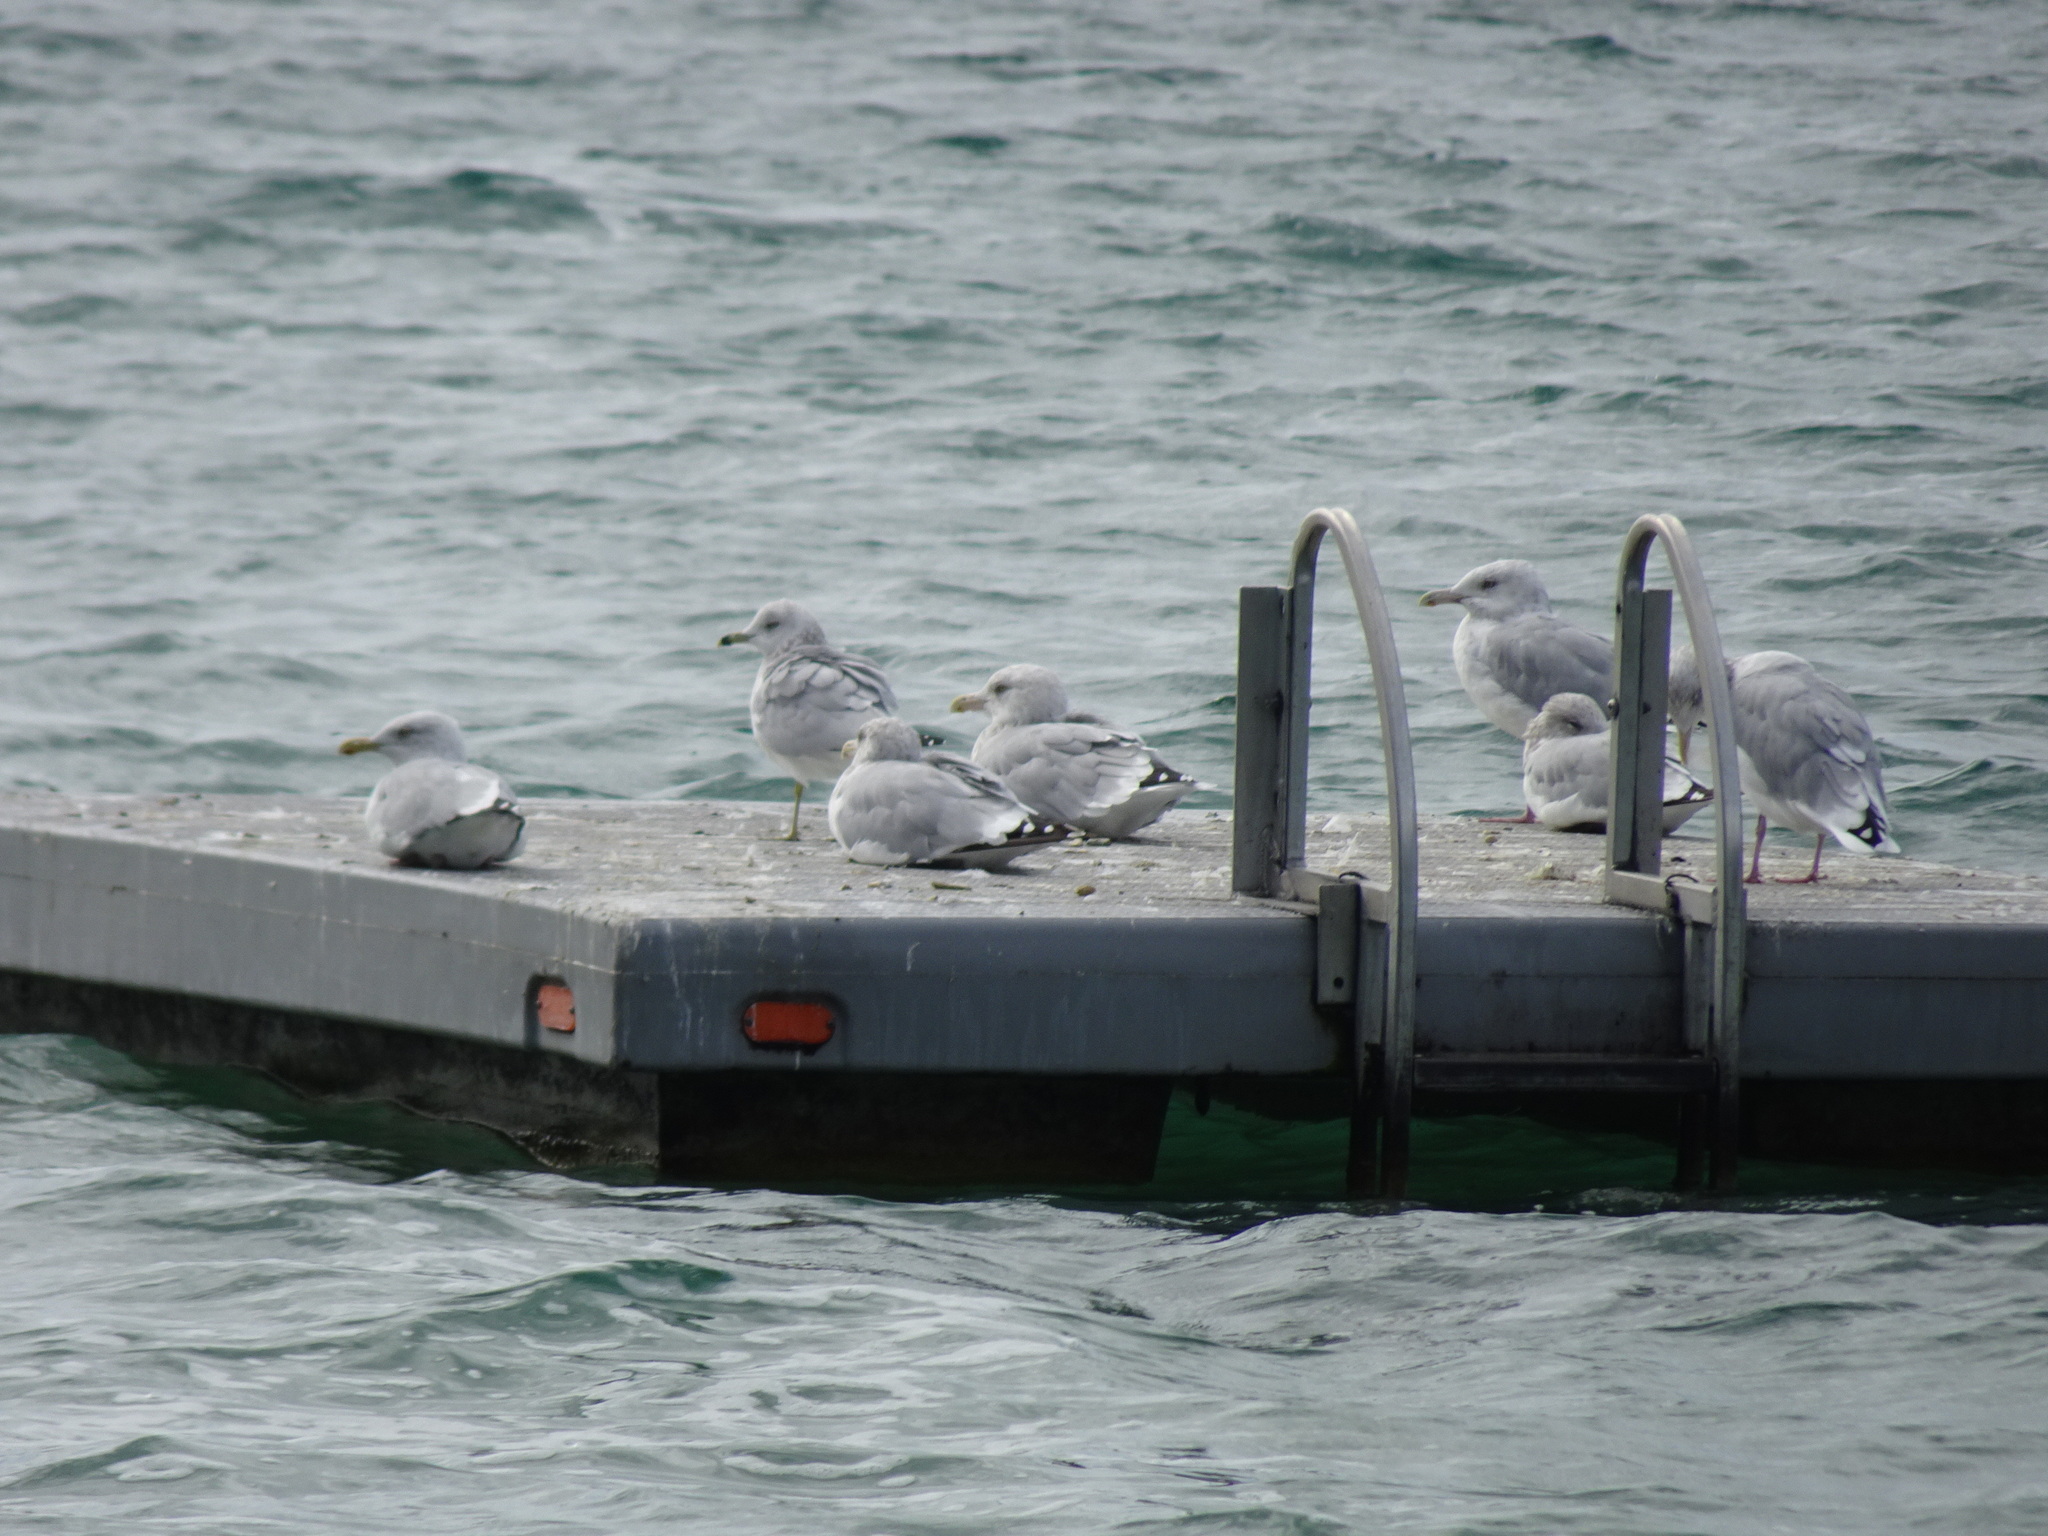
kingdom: Animalia
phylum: Chordata
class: Aves
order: Charadriiformes
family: Laridae
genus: Larus
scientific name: Larus delawarensis
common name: Ring-billed gull
